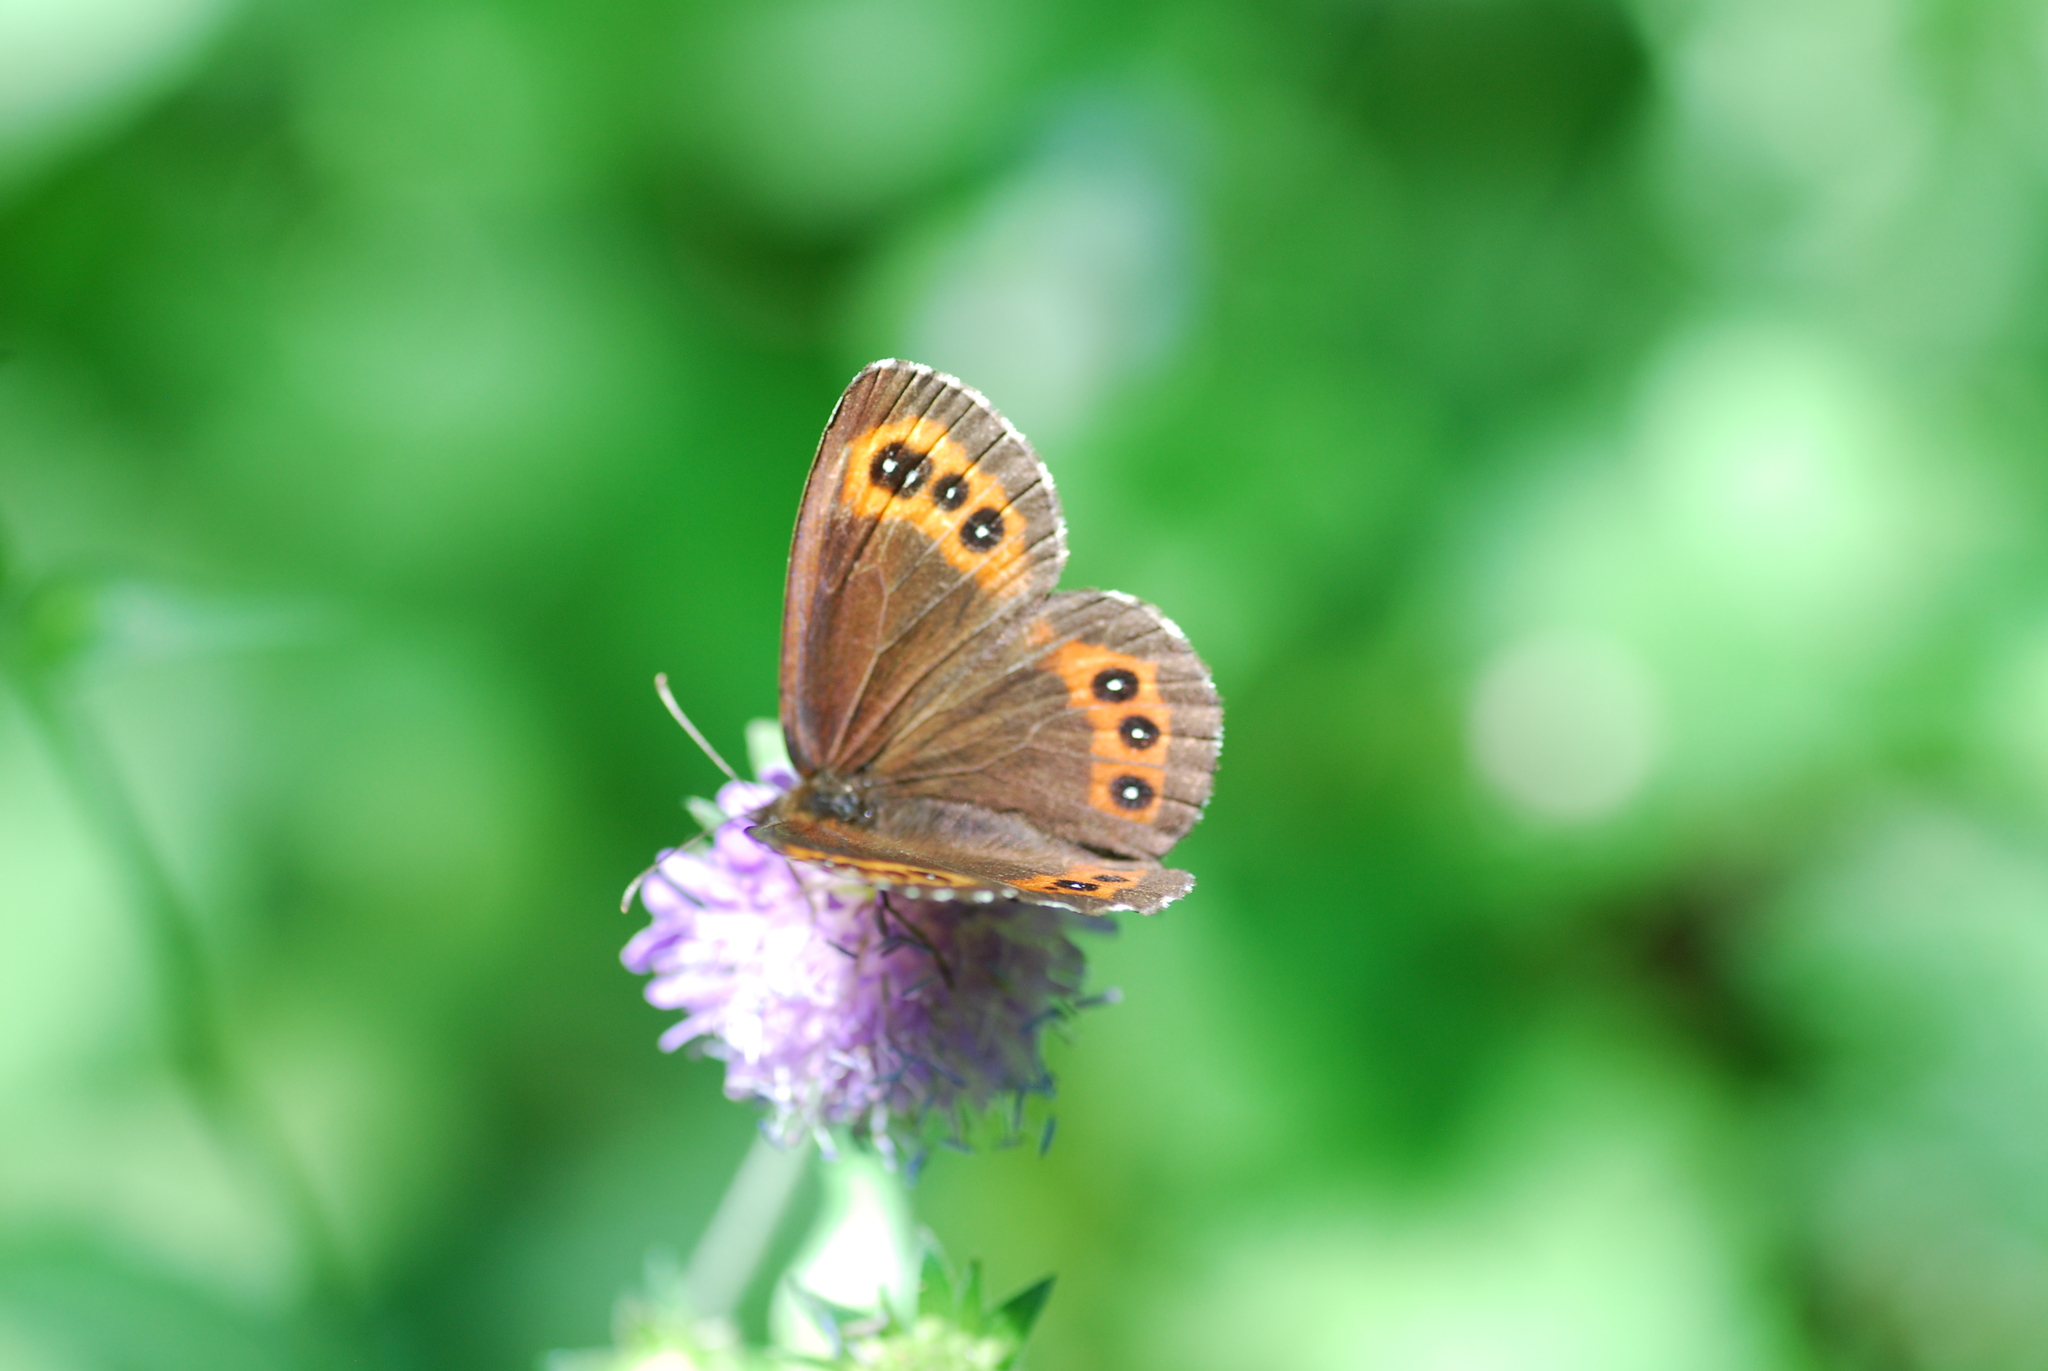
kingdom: Animalia
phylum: Arthropoda
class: Insecta
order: Lepidoptera
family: Nymphalidae
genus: Erebia
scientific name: Erebia ligea
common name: Arran brown
